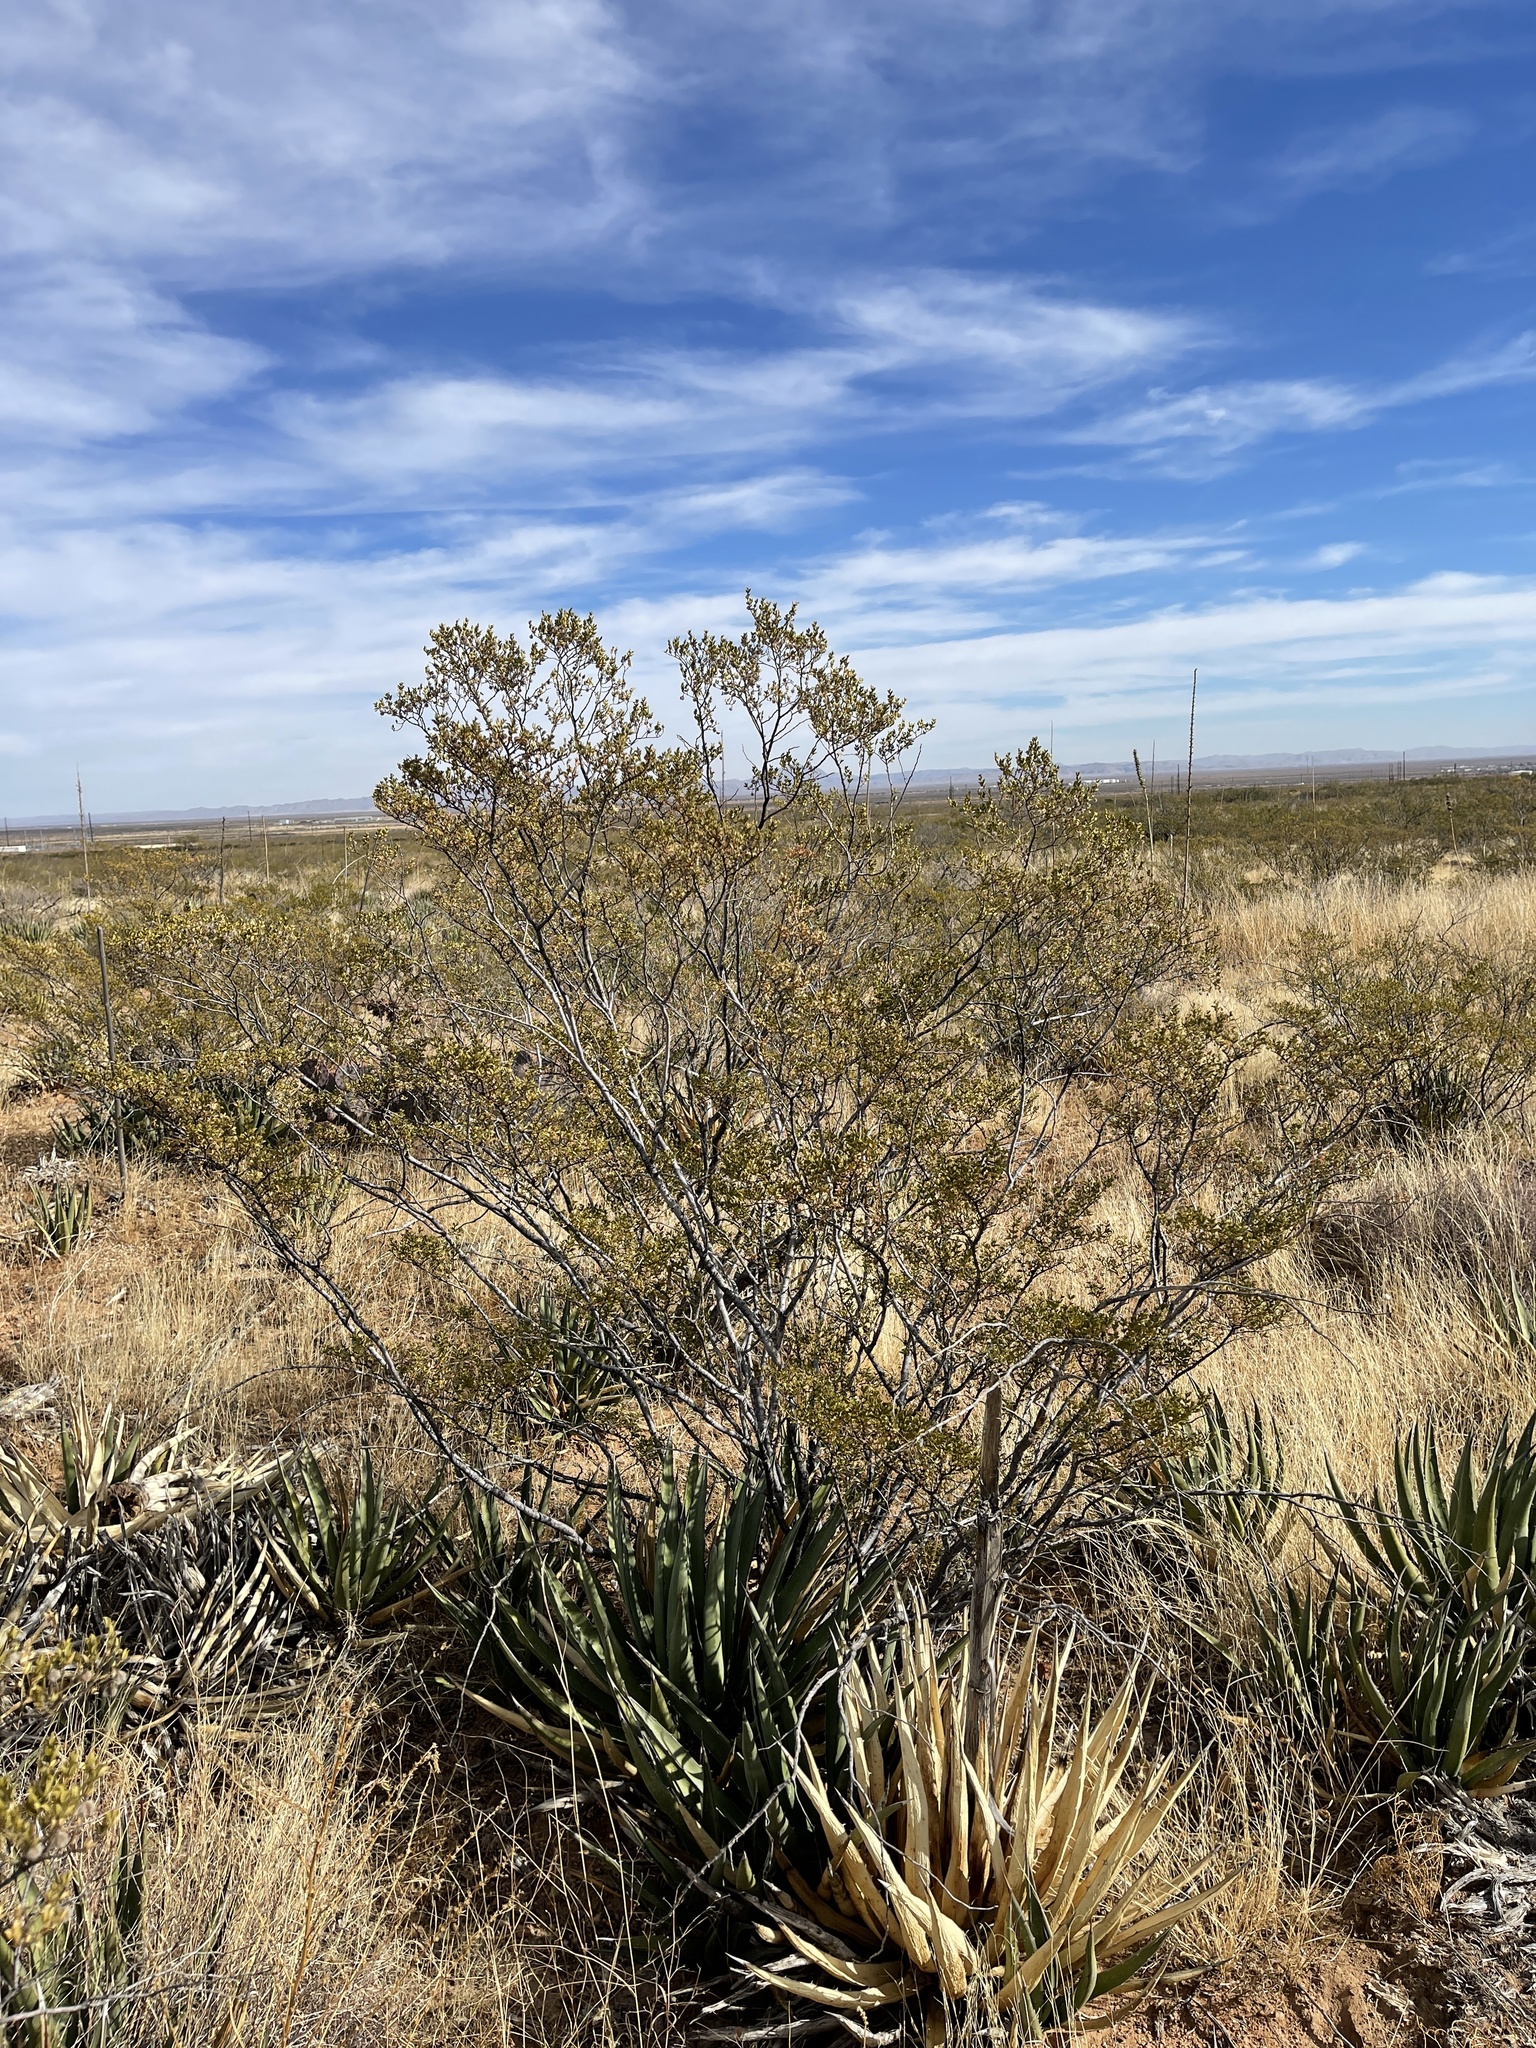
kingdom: Plantae
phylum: Tracheophyta
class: Magnoliopsida
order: Zygophyllales
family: Zygophyllaceae
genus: Larrea
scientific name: Larrea tridentata
